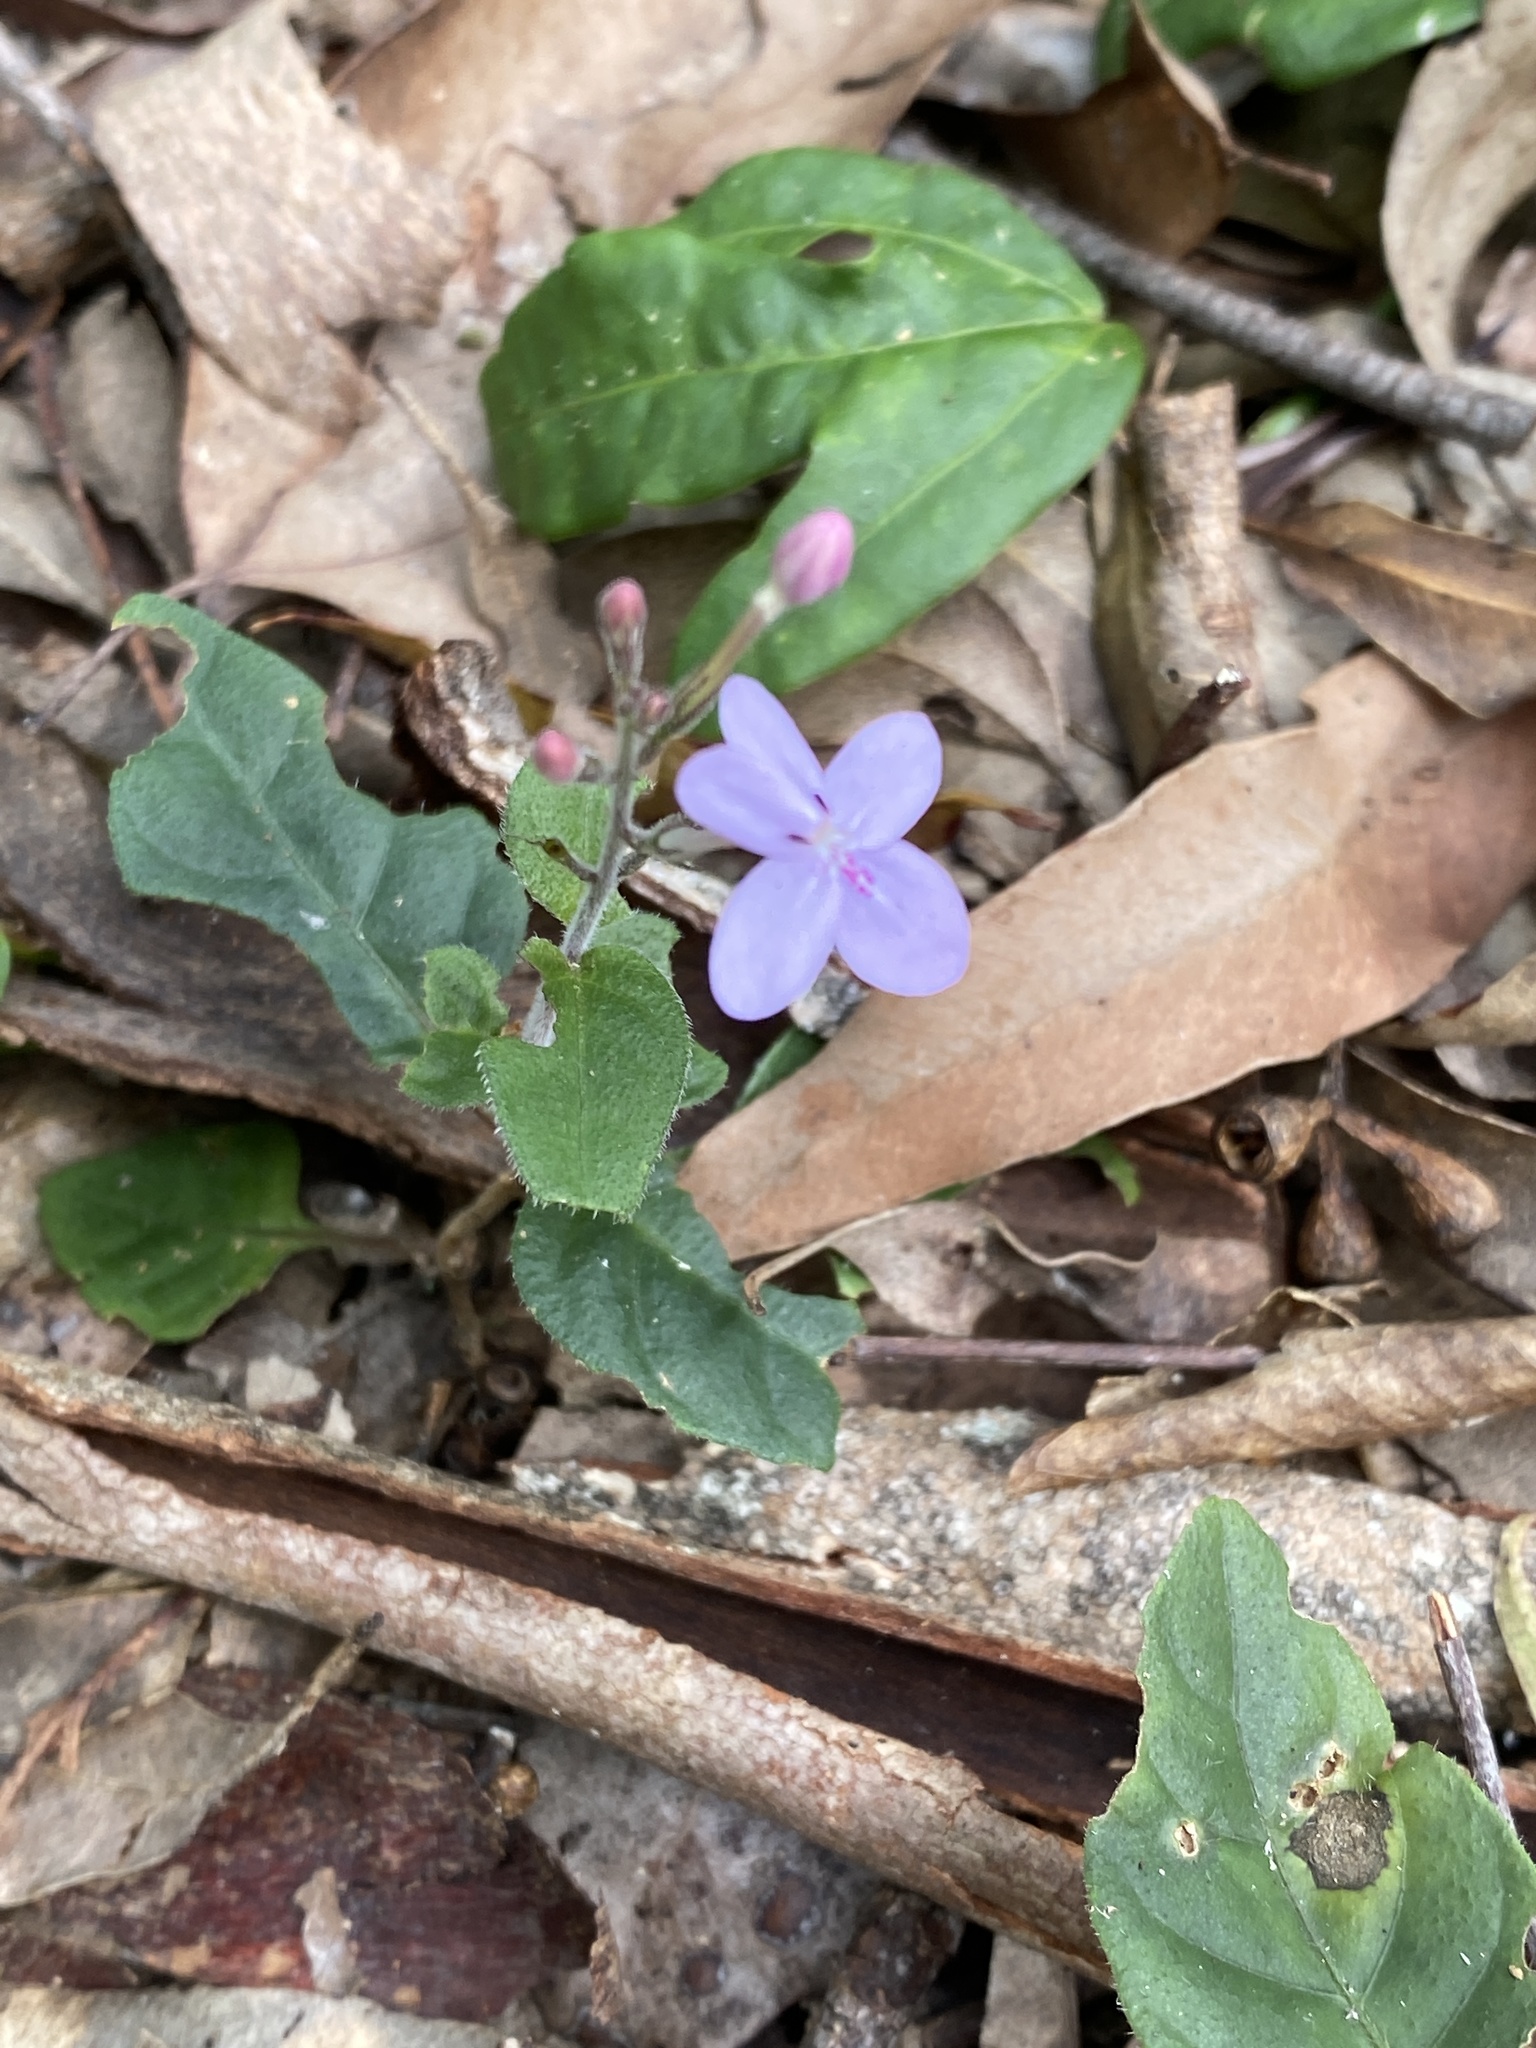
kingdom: Plantae
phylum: Tracheophyta
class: Magnoliopsida
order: Lamiales
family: Acanthaceae
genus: Pseuderanthemum
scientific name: Pseuderanthemum variabile
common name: Night and afternoon
